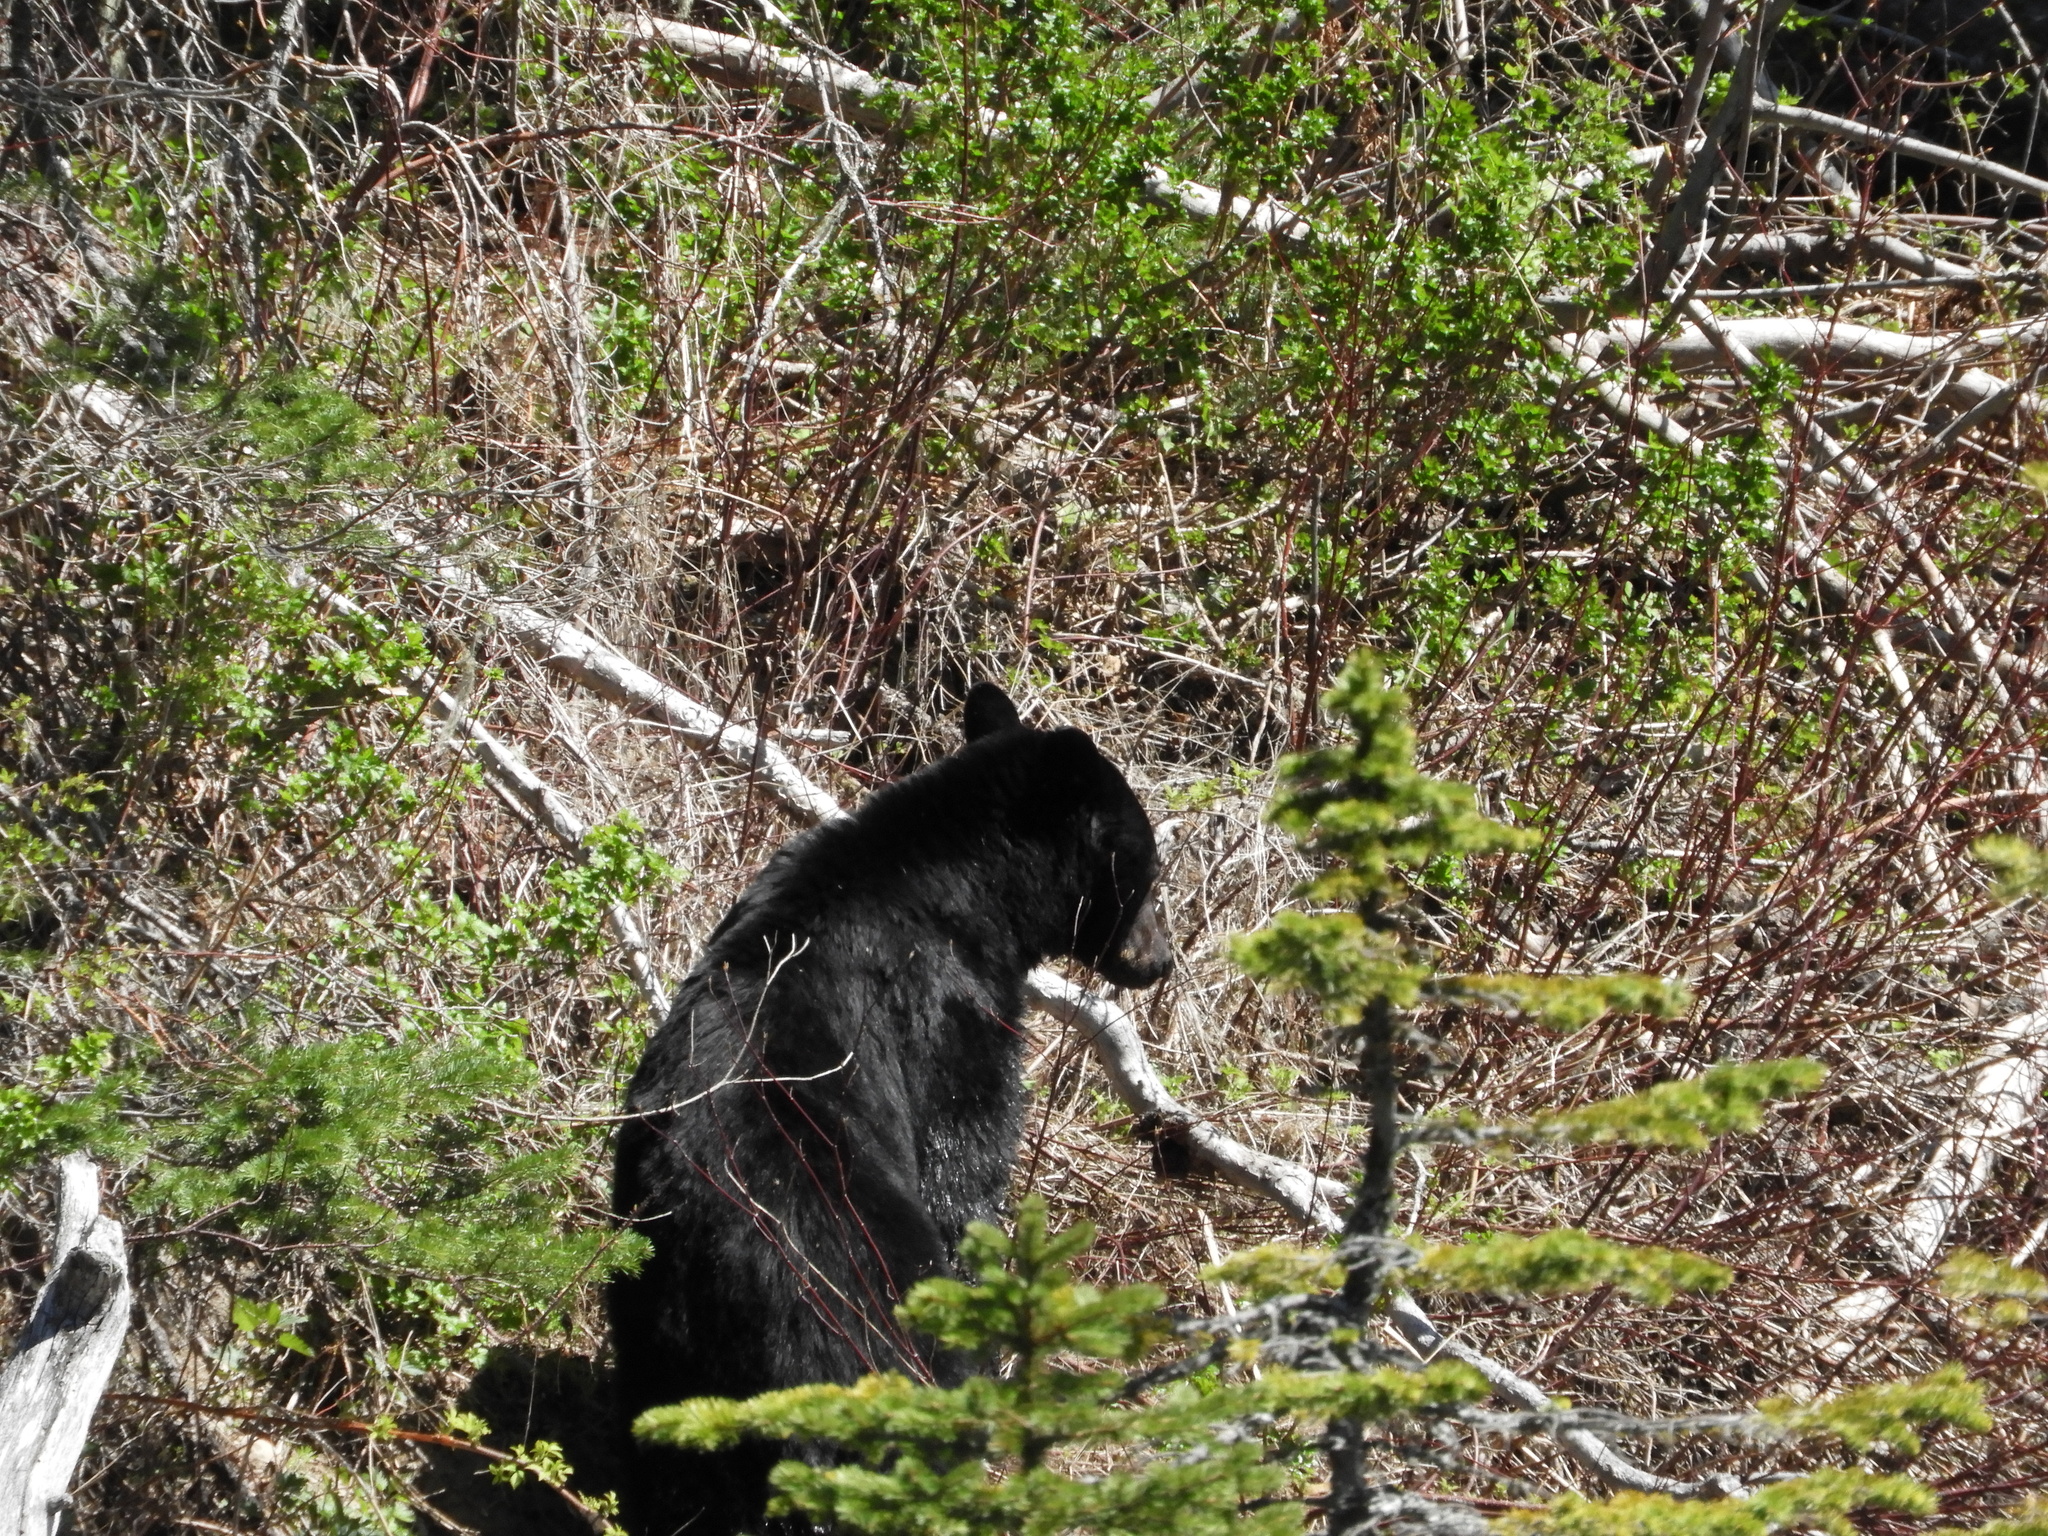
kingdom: Animalia
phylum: Chordata
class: Mammalia
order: Carnivora
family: Ursidae
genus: Ursus
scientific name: Ursus americanus
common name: American black bear
